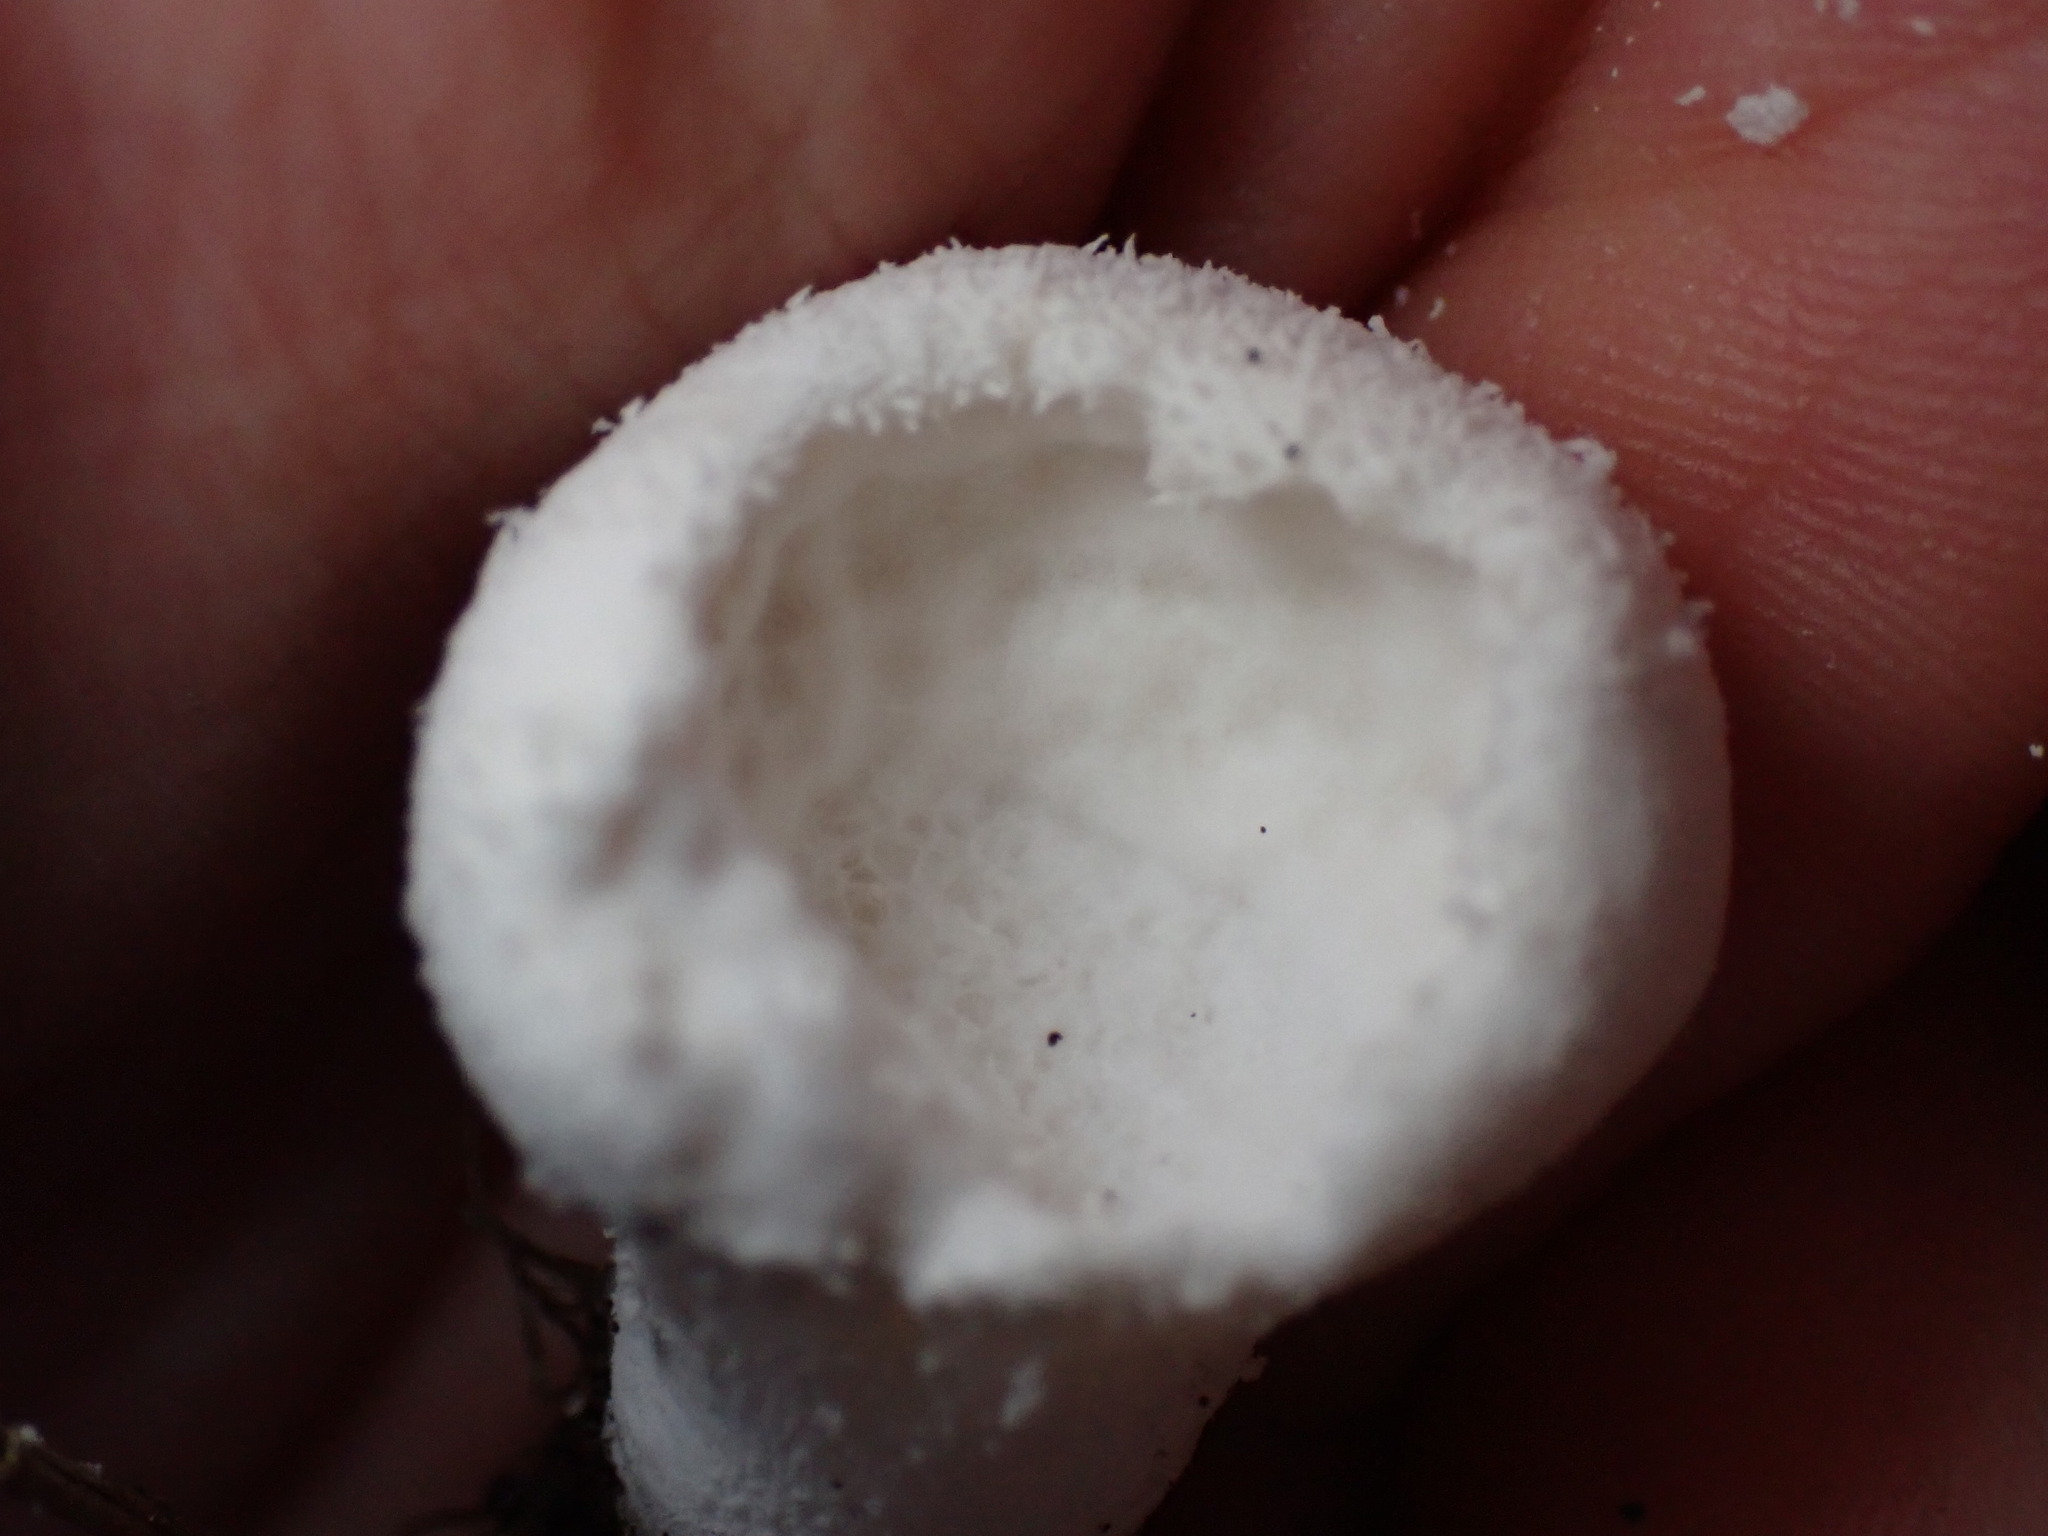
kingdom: Fungi
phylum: Basidiomycota
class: Agaricomycetes
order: Agaricales
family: Agaricaceae
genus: Lycoperdon
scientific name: Lycoperdon marginatum
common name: Peeling puffball
